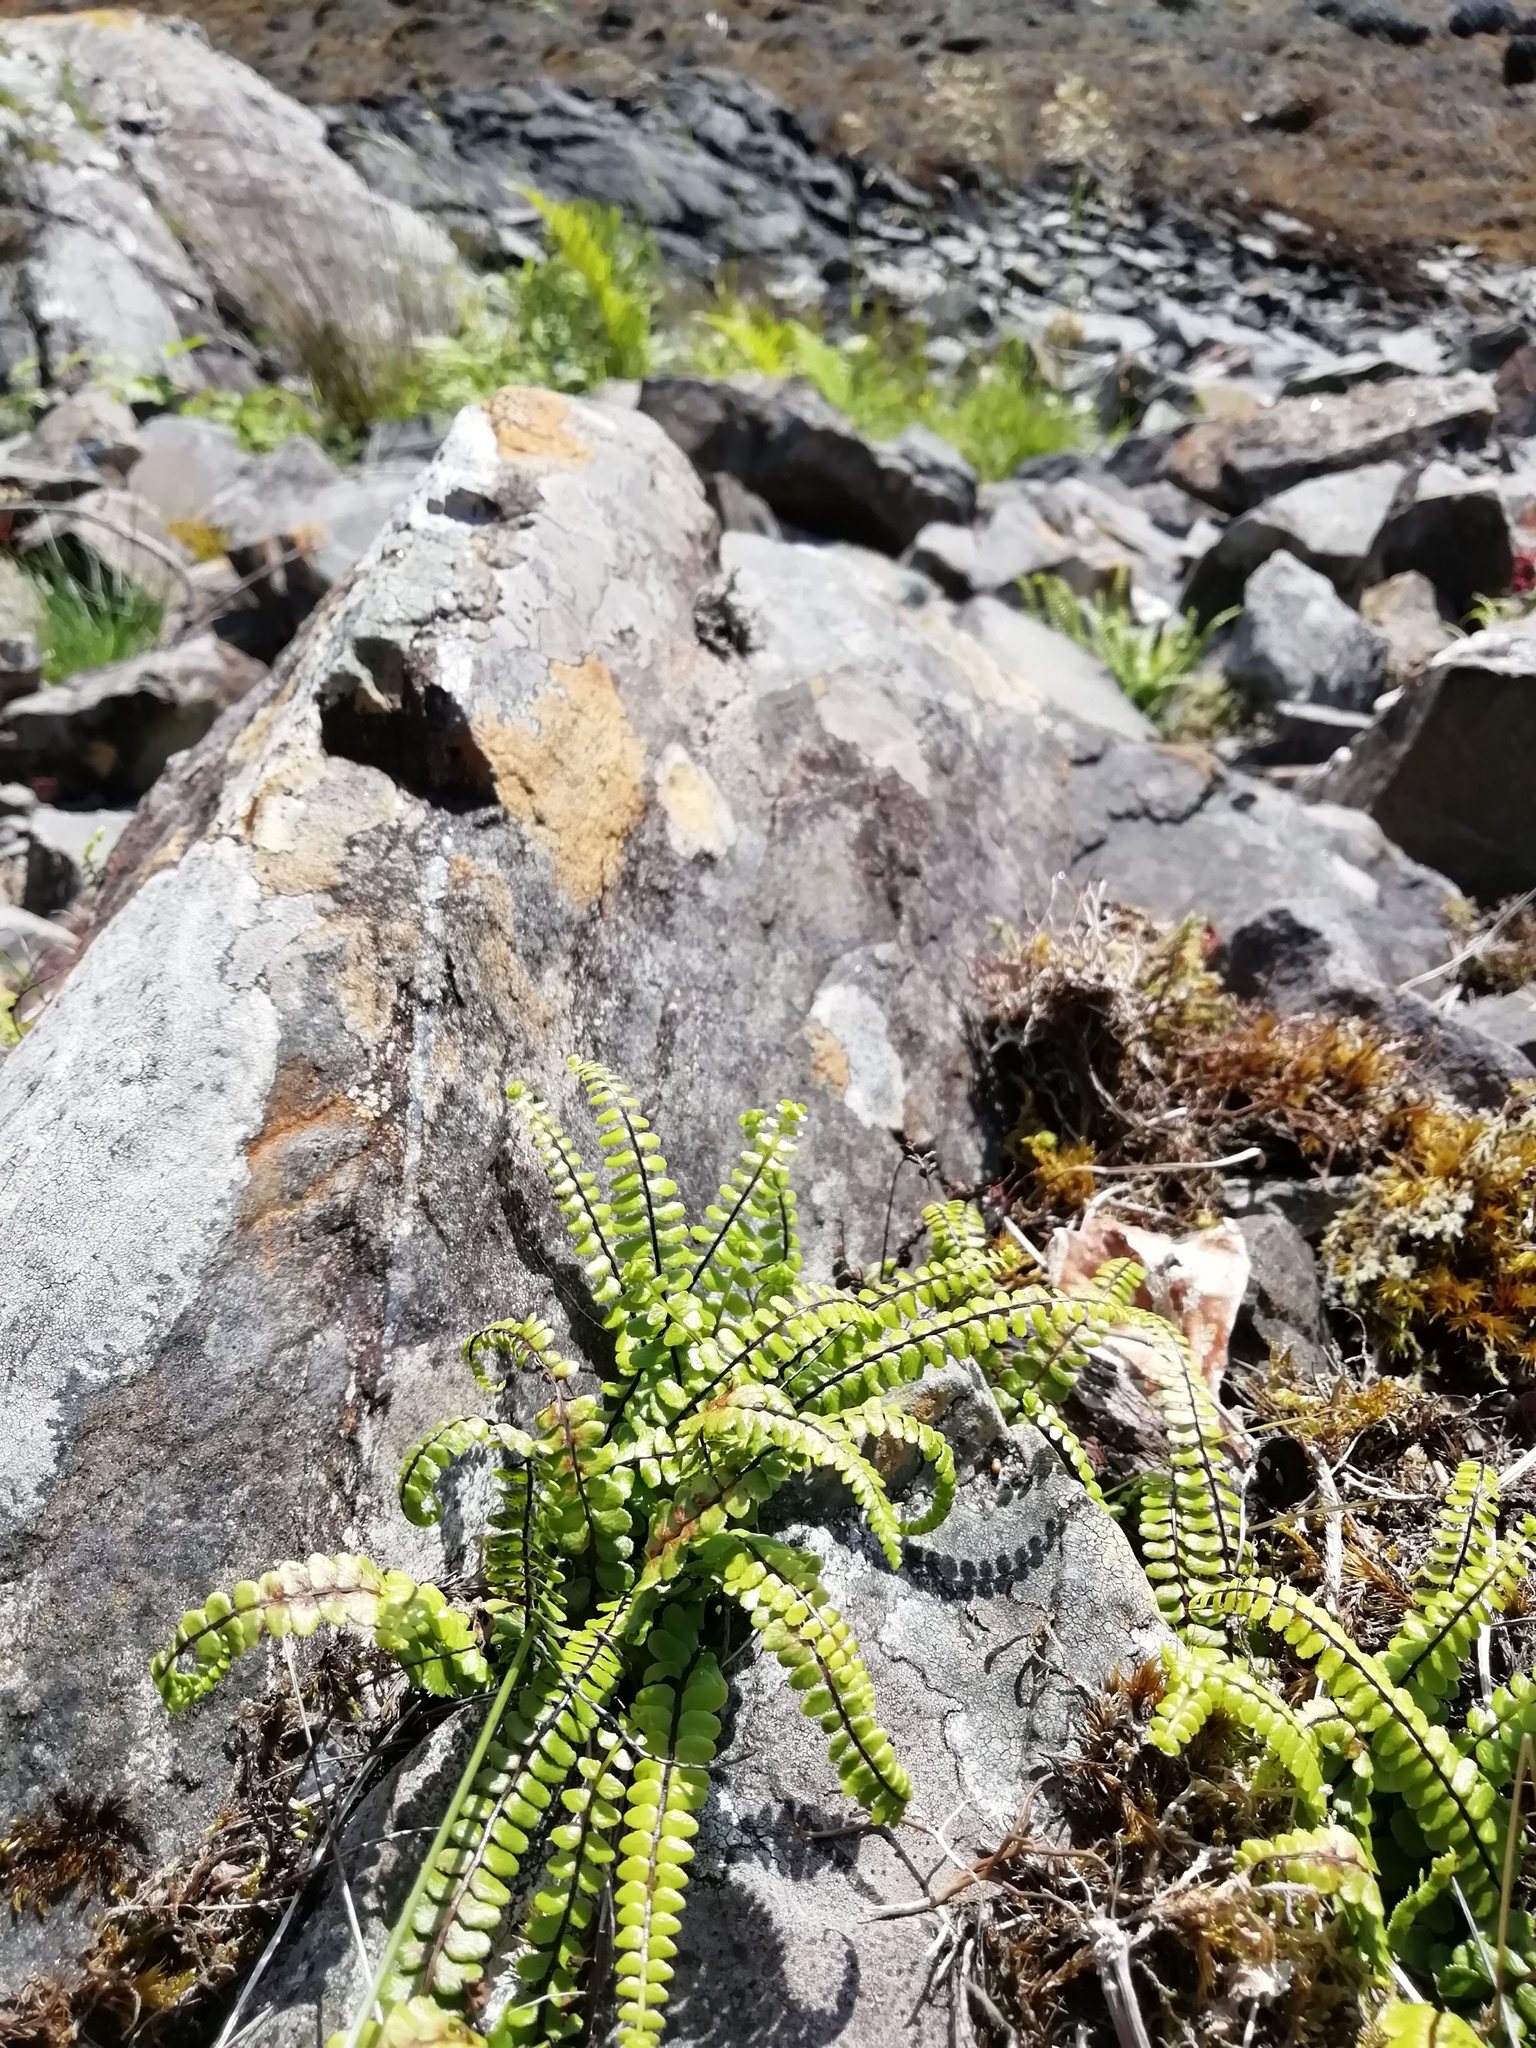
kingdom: Plantae
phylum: Tracheophyta
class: Polypodiopsida
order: Polypodiales
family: Aspleniaceae
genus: Asplenium
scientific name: Asplenium trichomanes
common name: Maidenhair spleenwort
